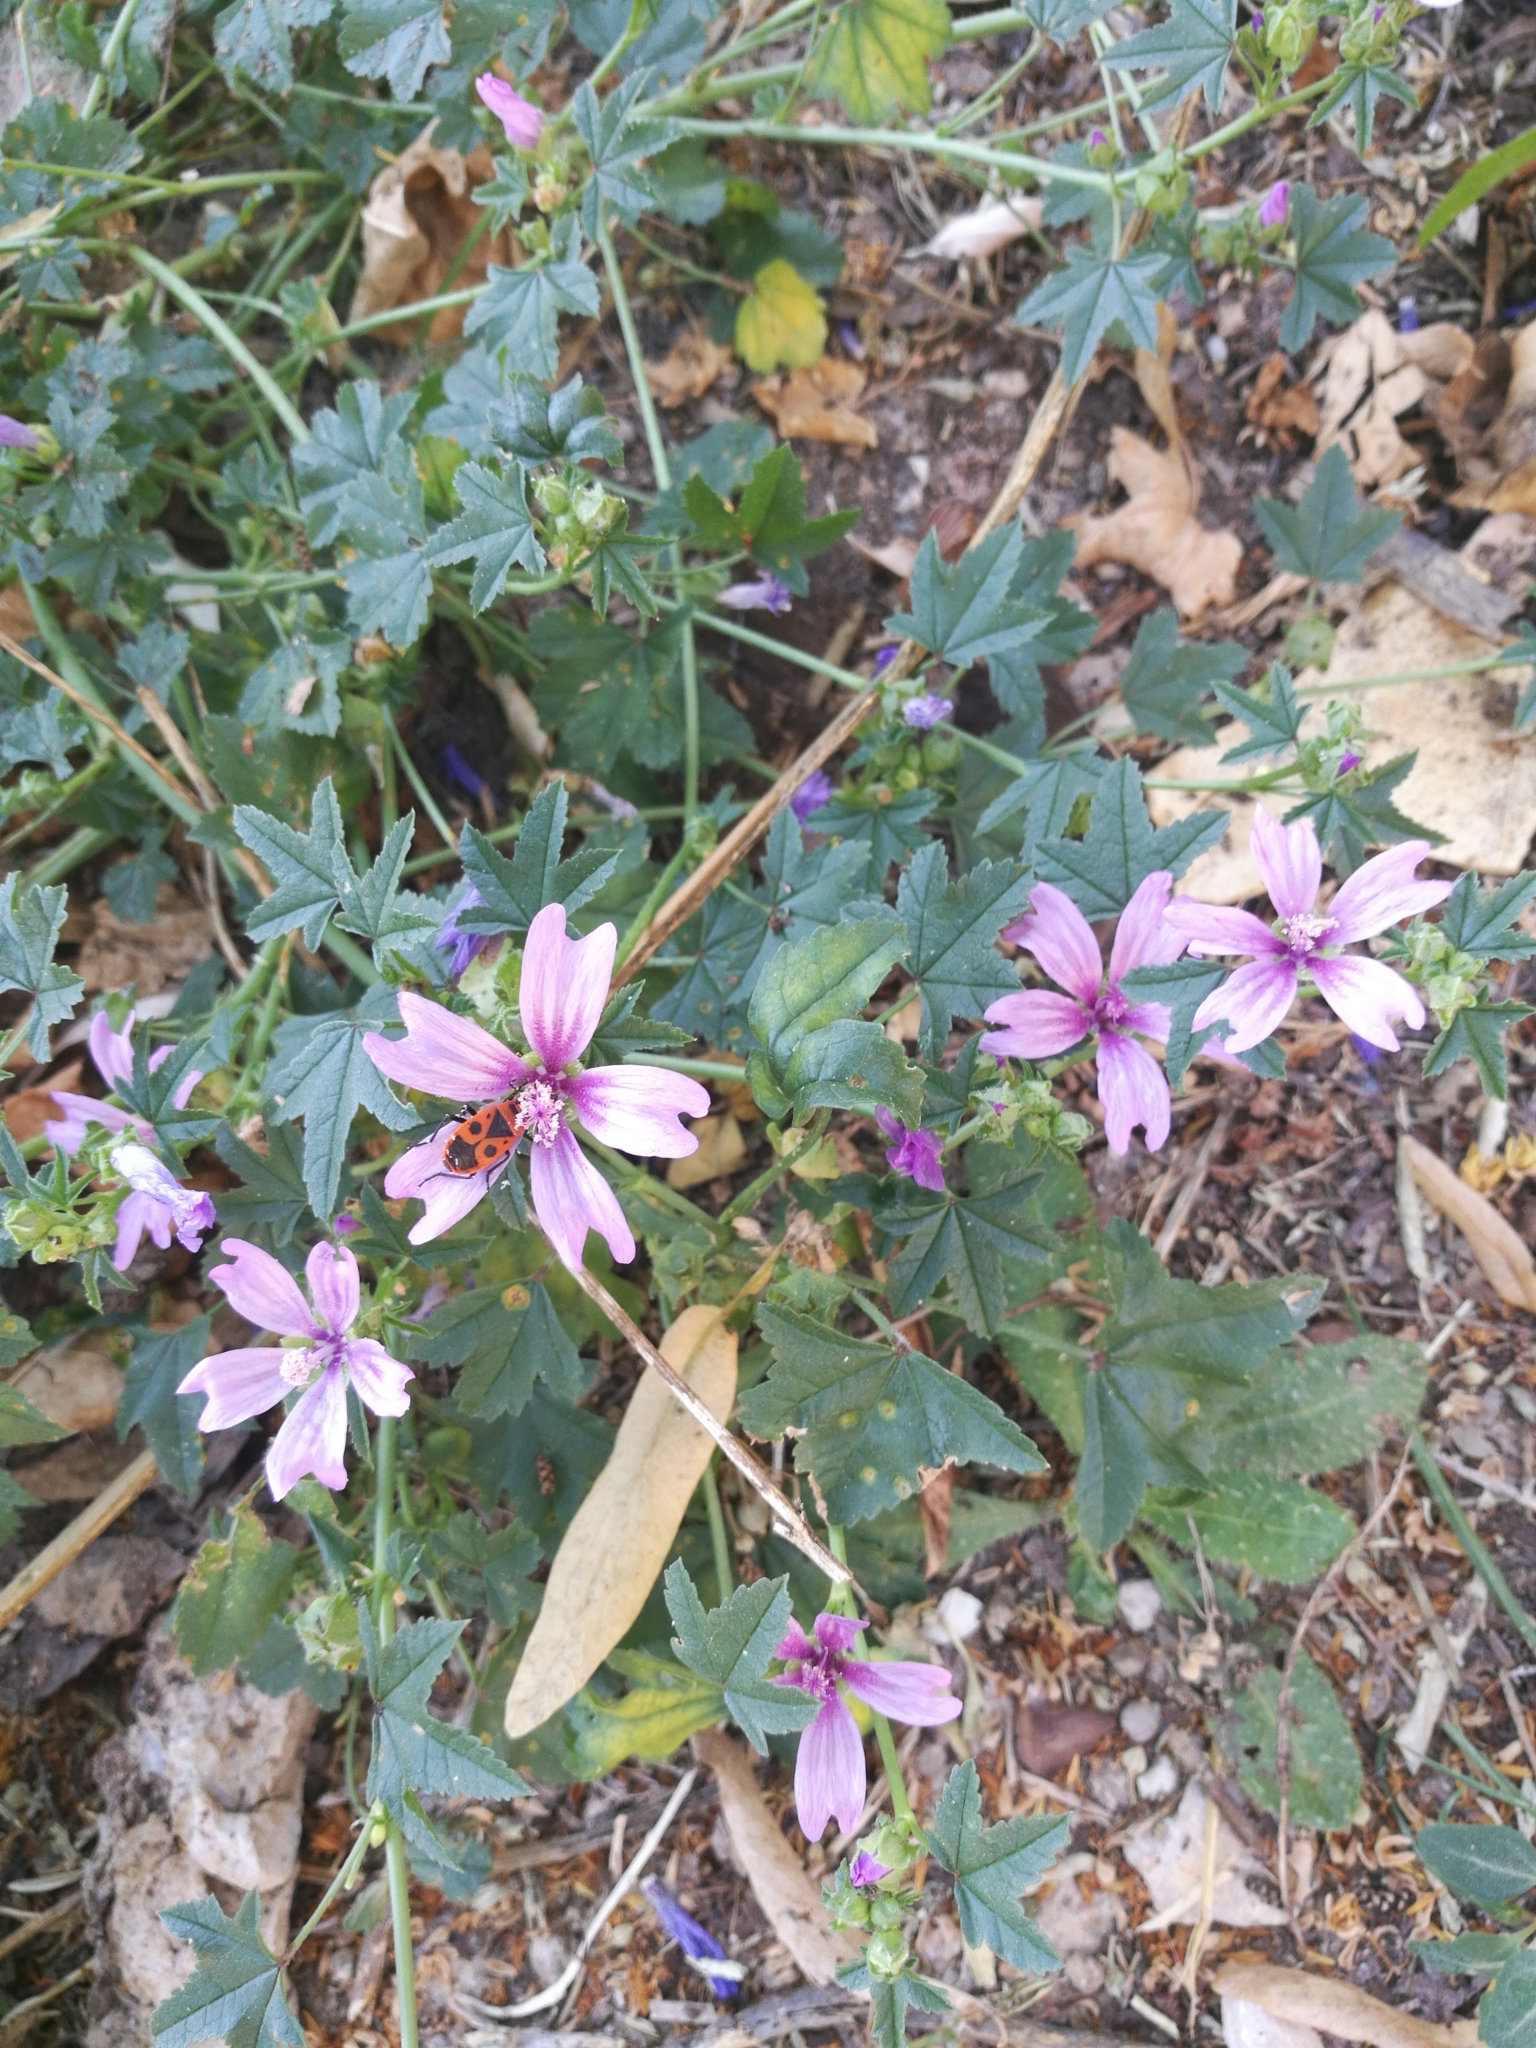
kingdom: Plantae
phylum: Tracheophyta
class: Magnoliopsida
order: Malvales
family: Malvaceae
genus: Malva
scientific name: Malva sylvestris
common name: Common mallow
